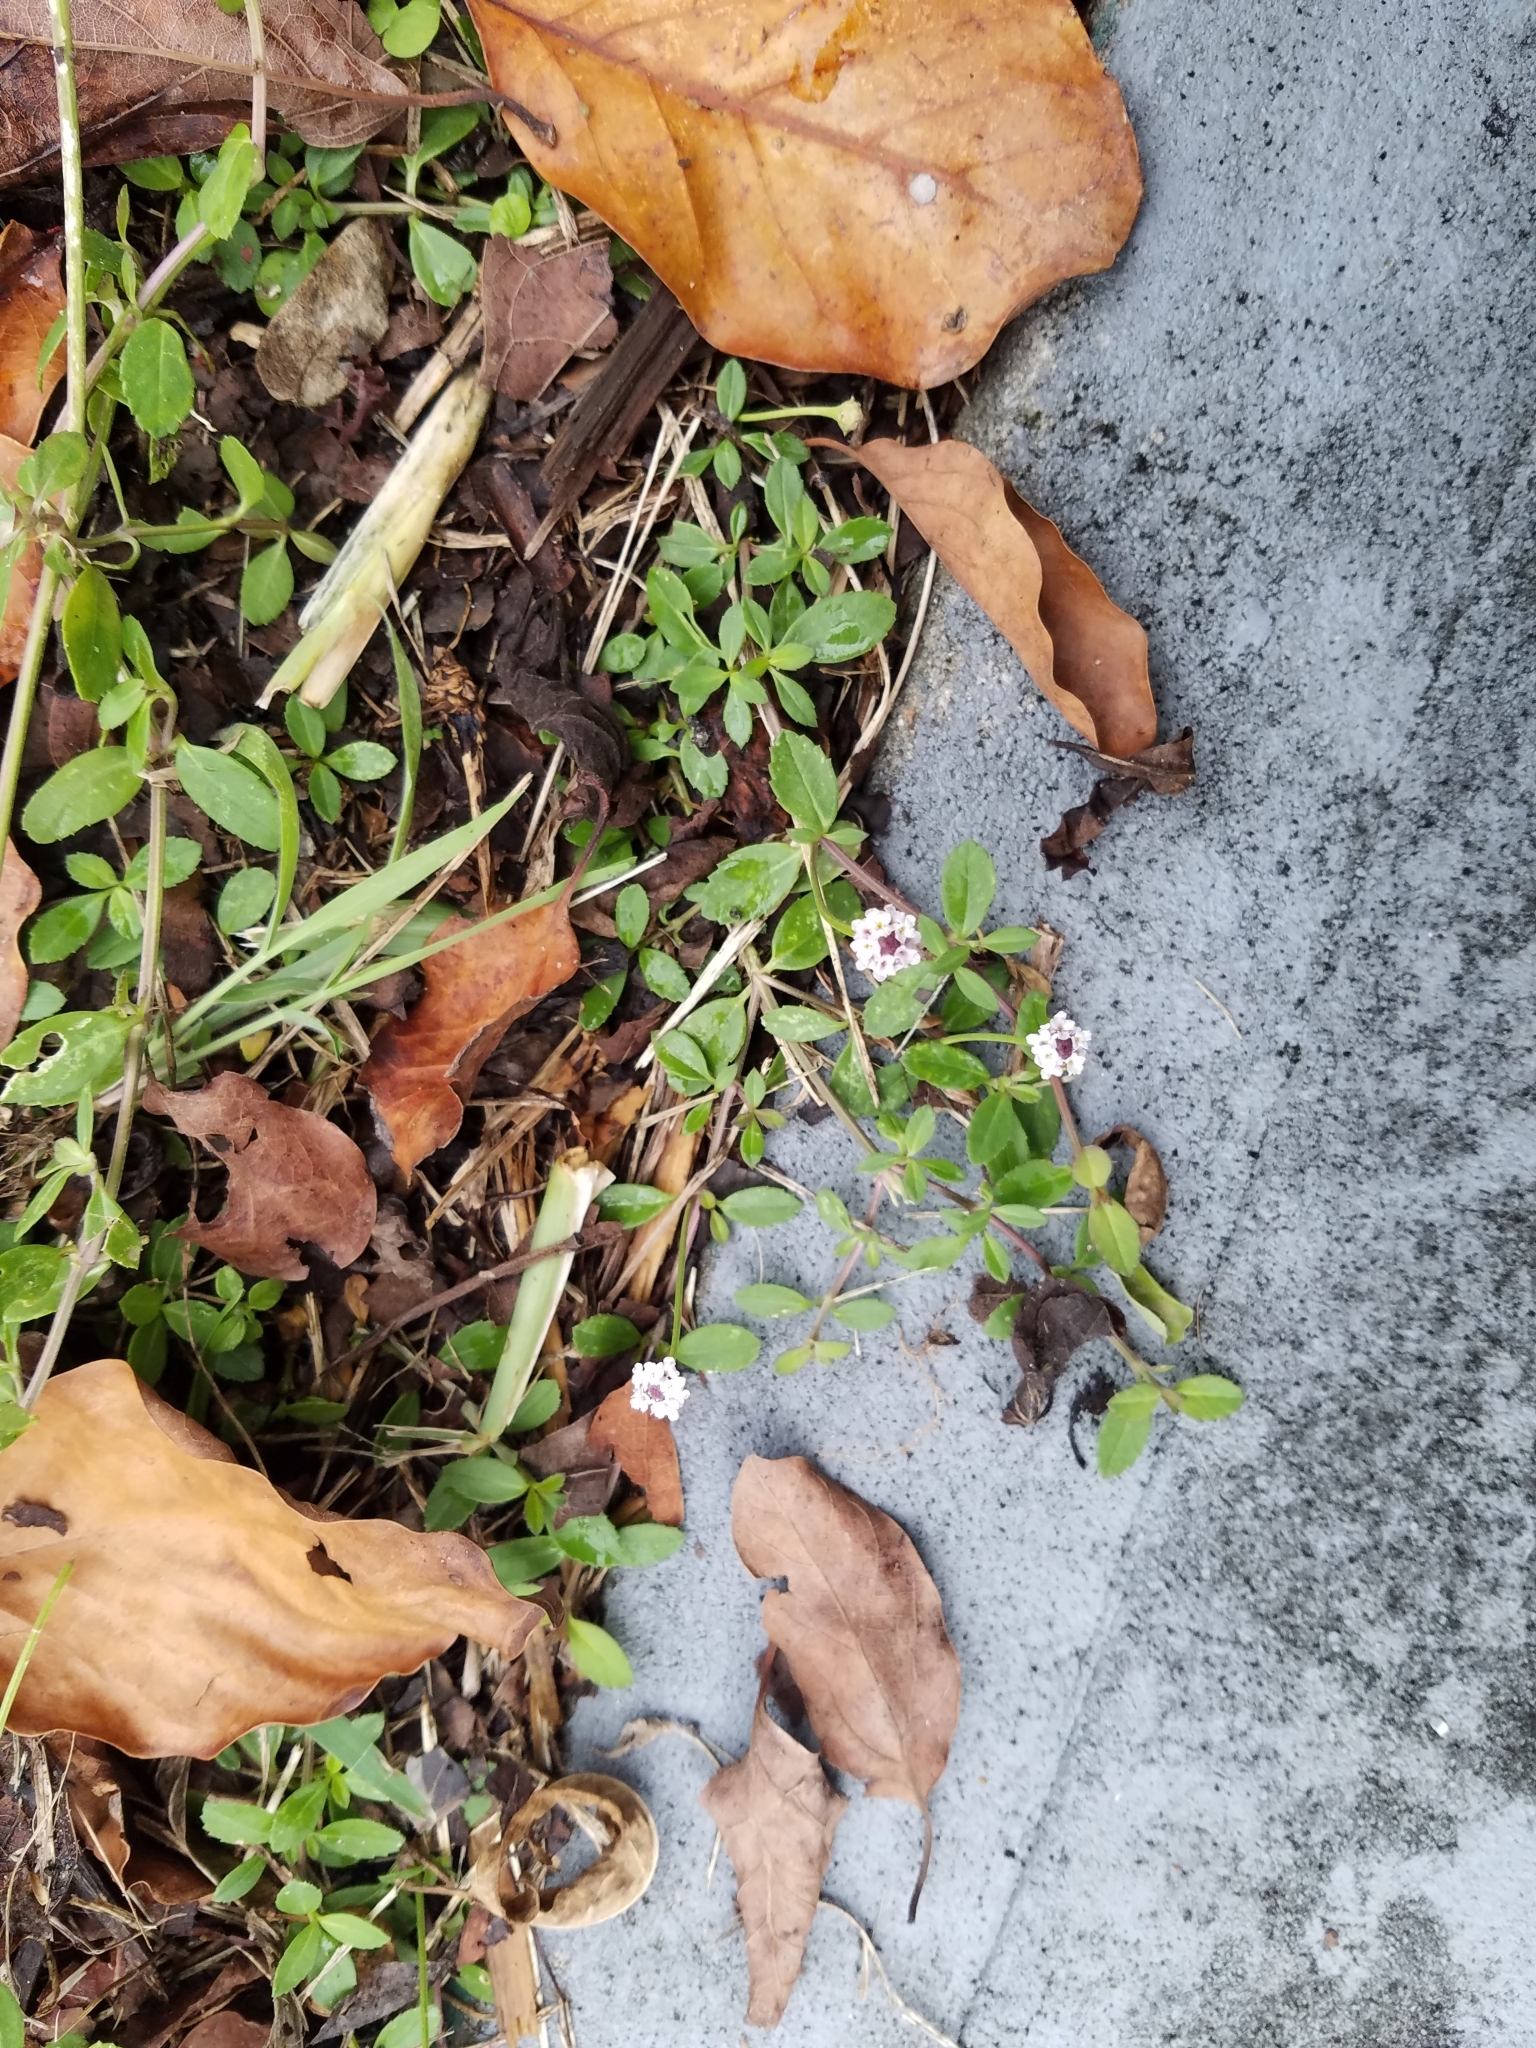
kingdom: Plantae
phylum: Tracheophyta
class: Magnoliopsida
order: Lamiales
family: Verbenaceae
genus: Phyla
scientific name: Phyla nodiflora
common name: Frogfruit
